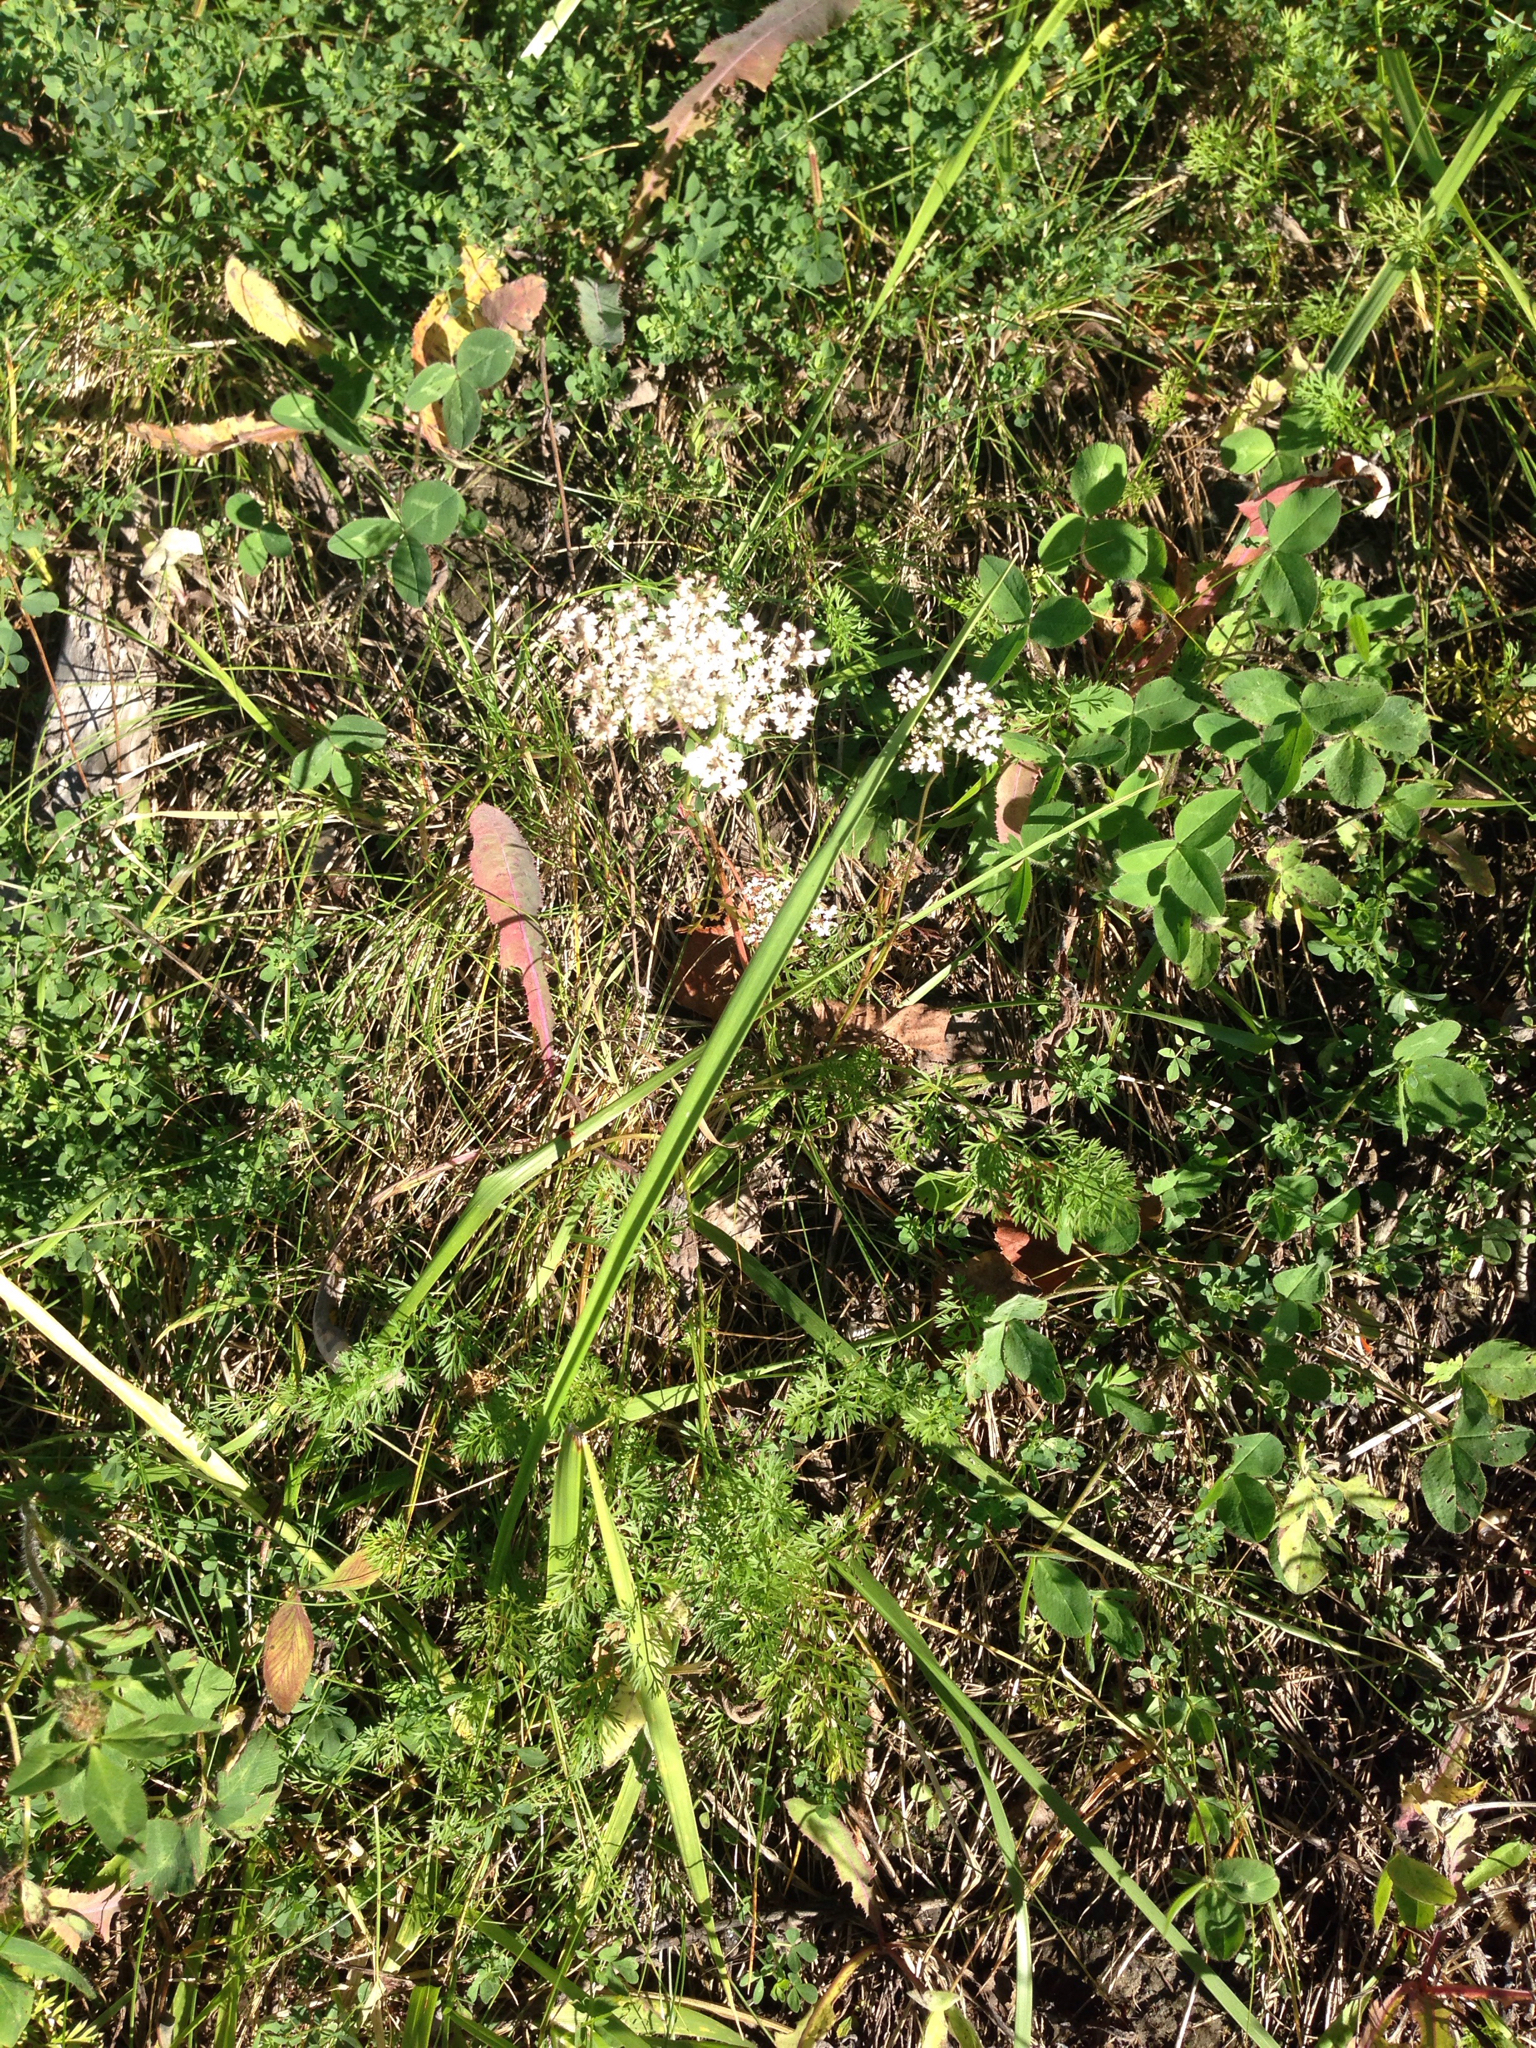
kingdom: Plantae
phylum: Tracheophyta
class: Magnoliopsida
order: Apiales
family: Apiaceae
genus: Daucus
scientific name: Daucus carota
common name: Wild carrot
